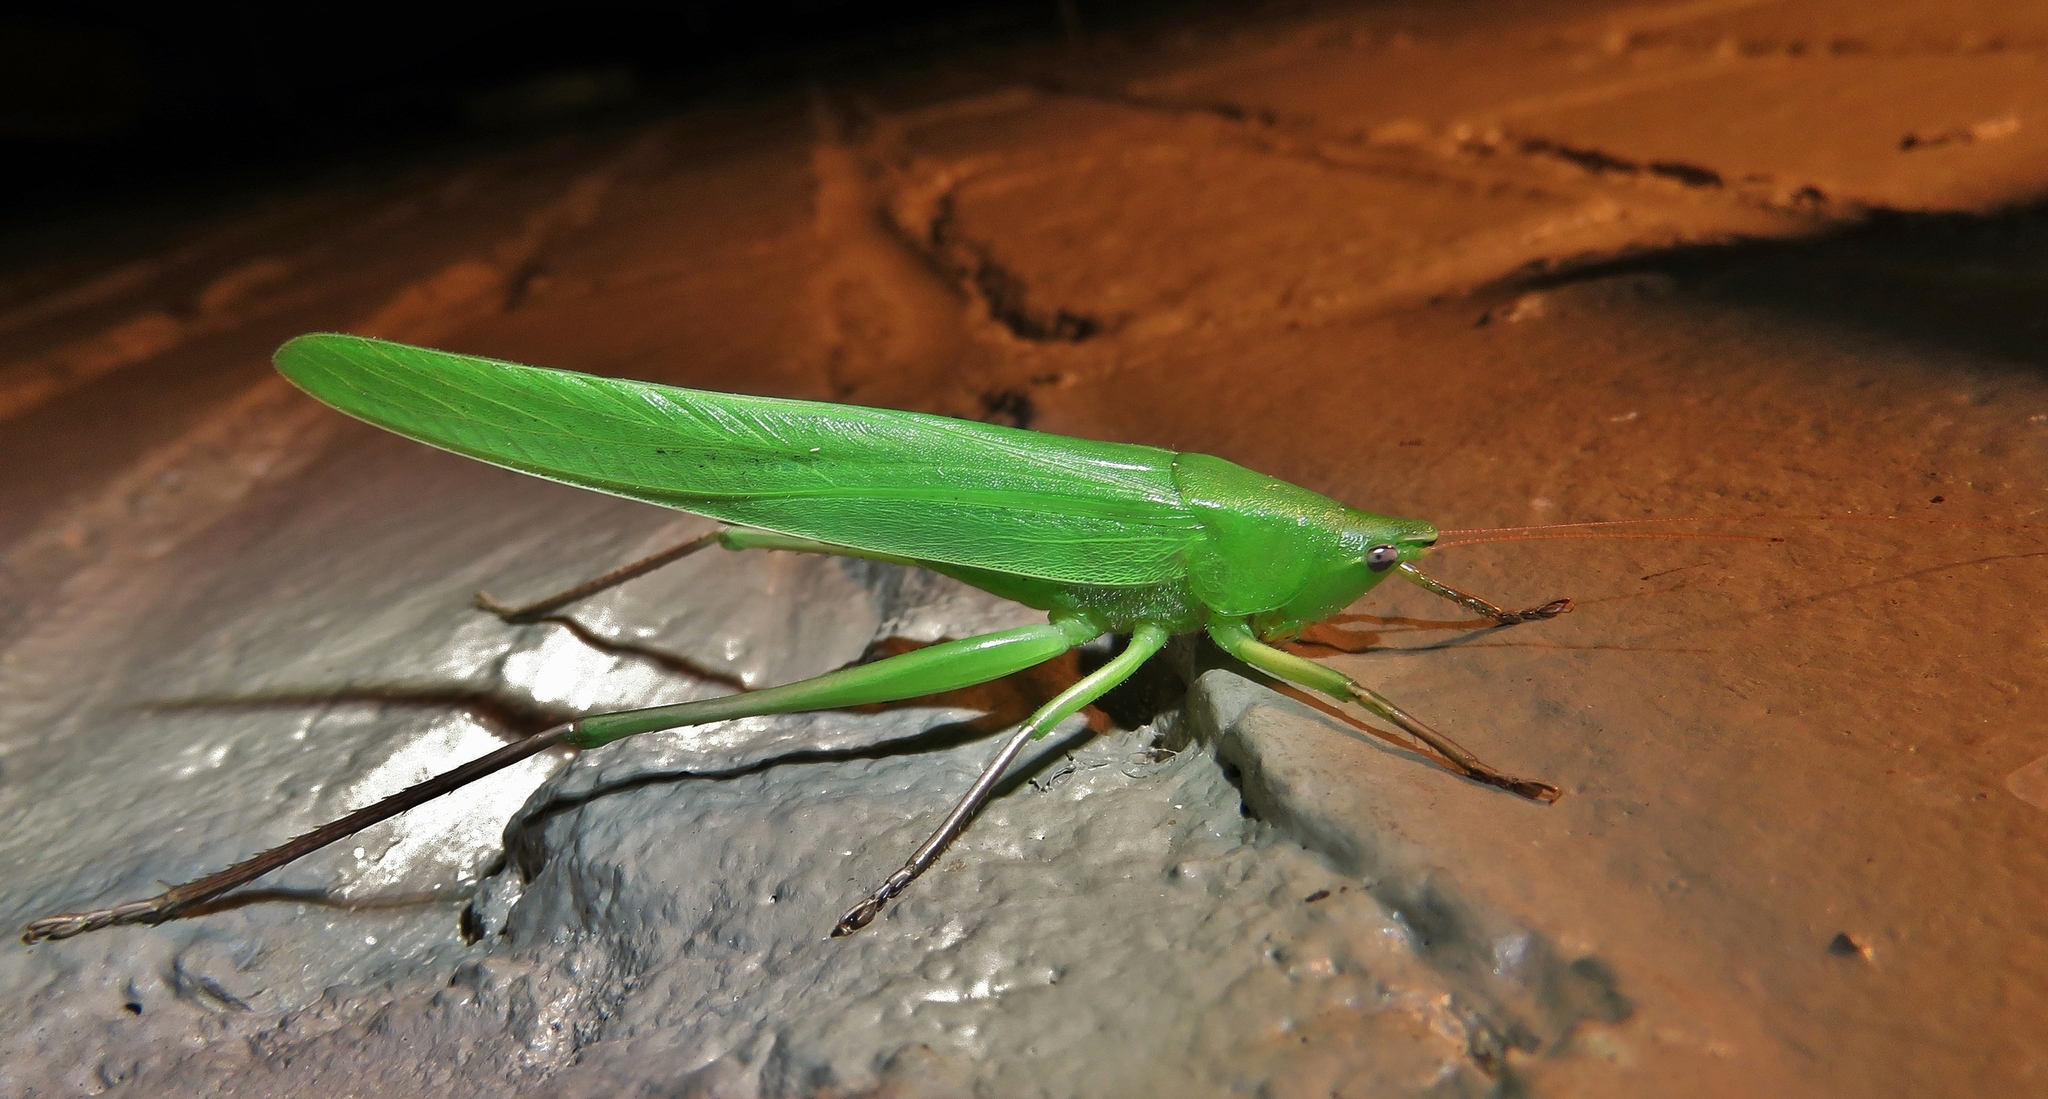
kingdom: Animalia
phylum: Arthropoda
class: Insecta
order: Orthoptera
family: Tettigoniidae
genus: Neoconocephalus
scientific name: Neoconocephalus triops
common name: Broad-tipped conehead
